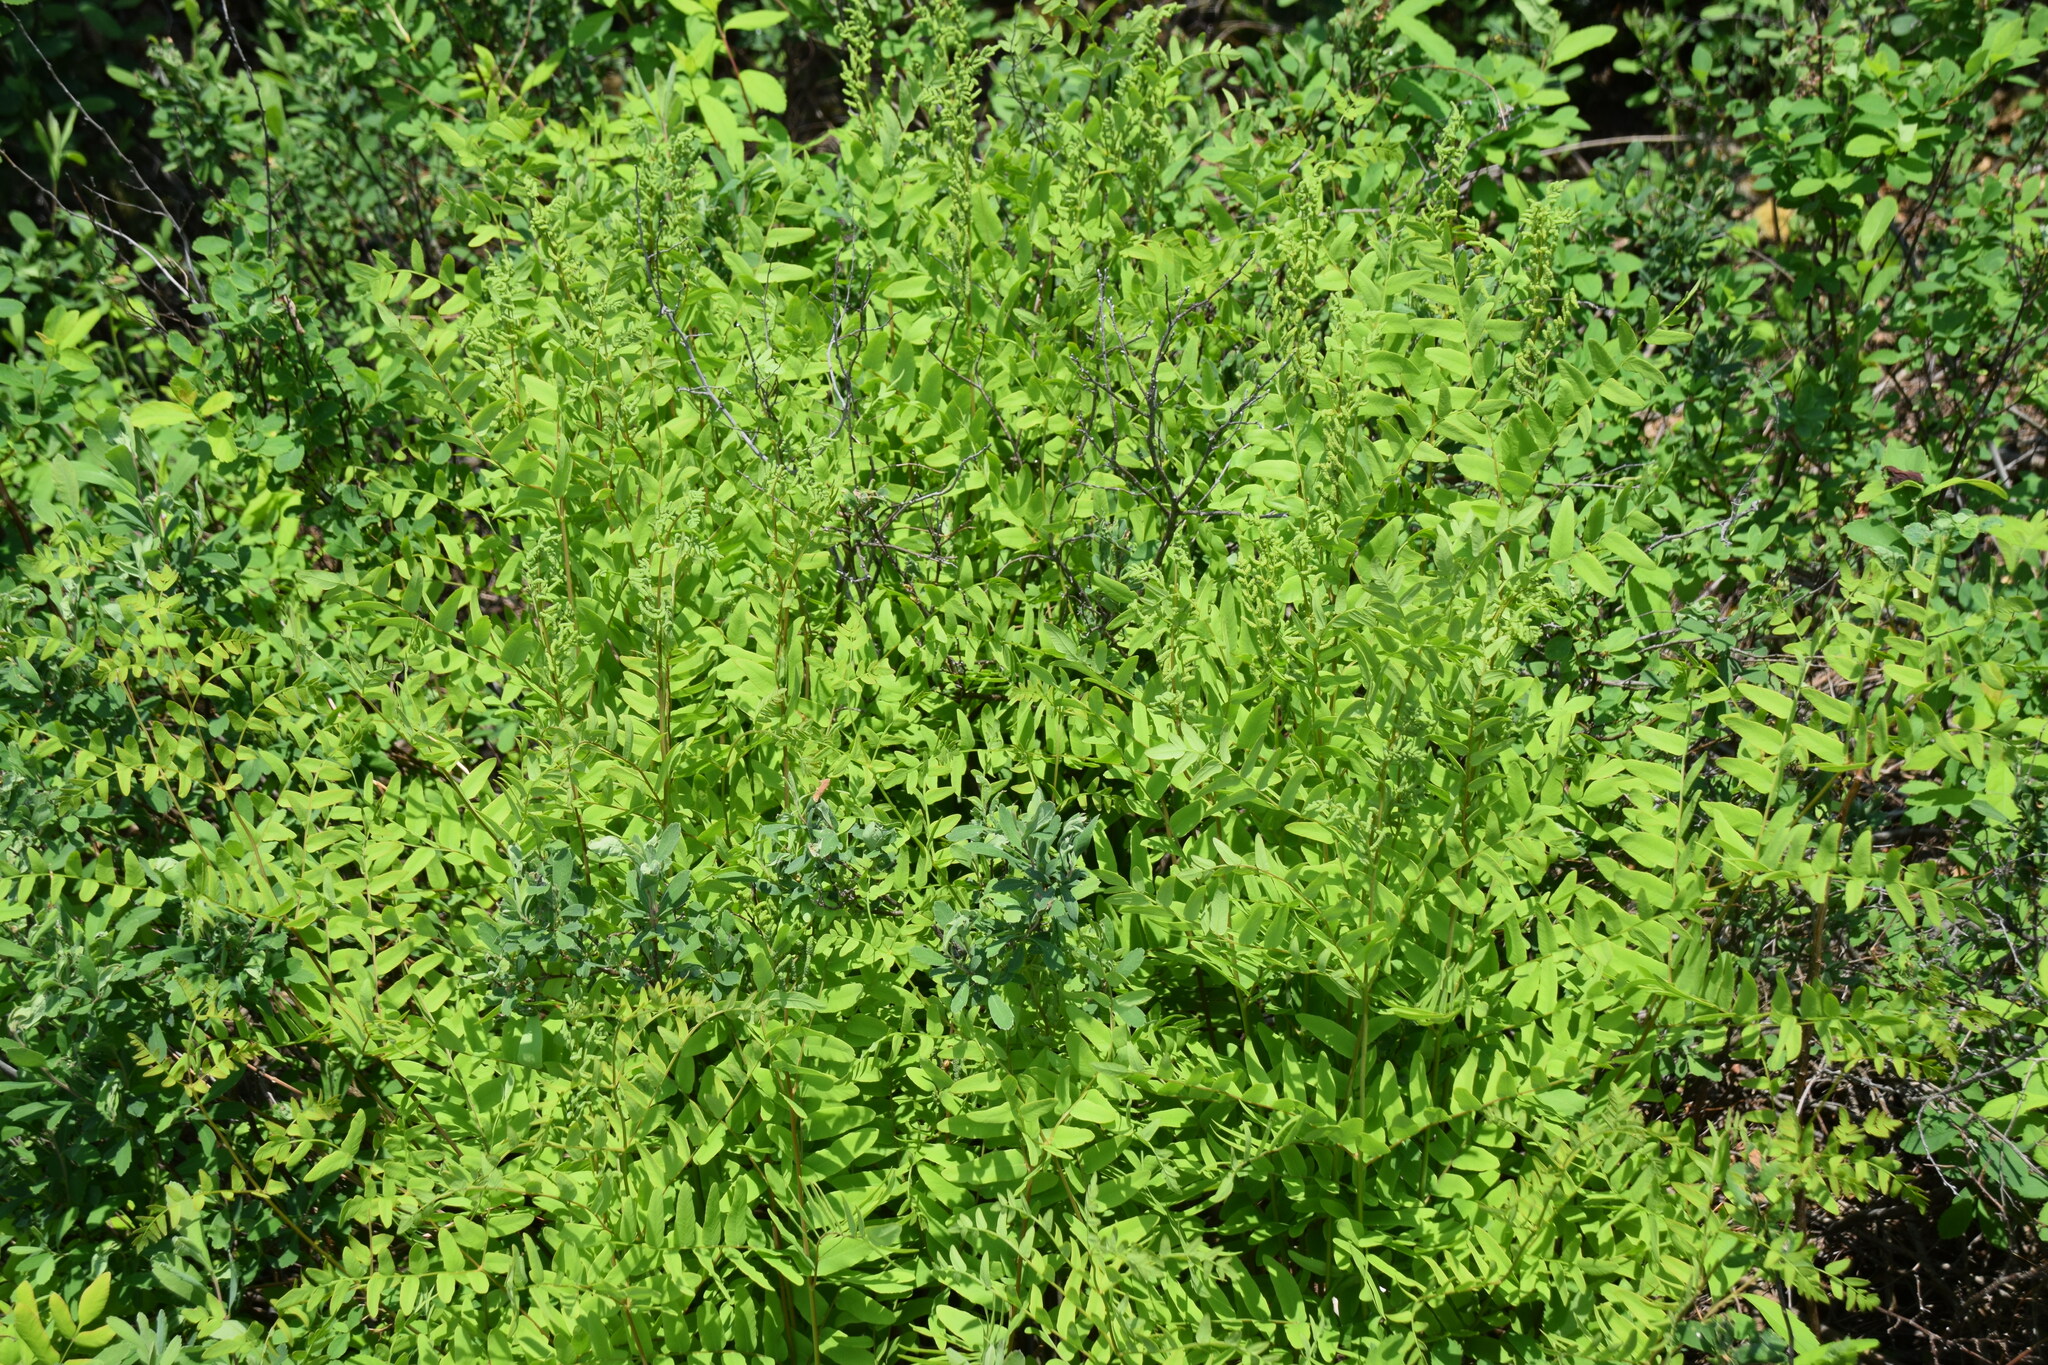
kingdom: Plantae
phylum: Tracheophyta
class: Polypodiopsida
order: Osmundales
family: Osmundaceae
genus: Osmunda
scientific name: Osmunda spectabilis
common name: American royal fern
